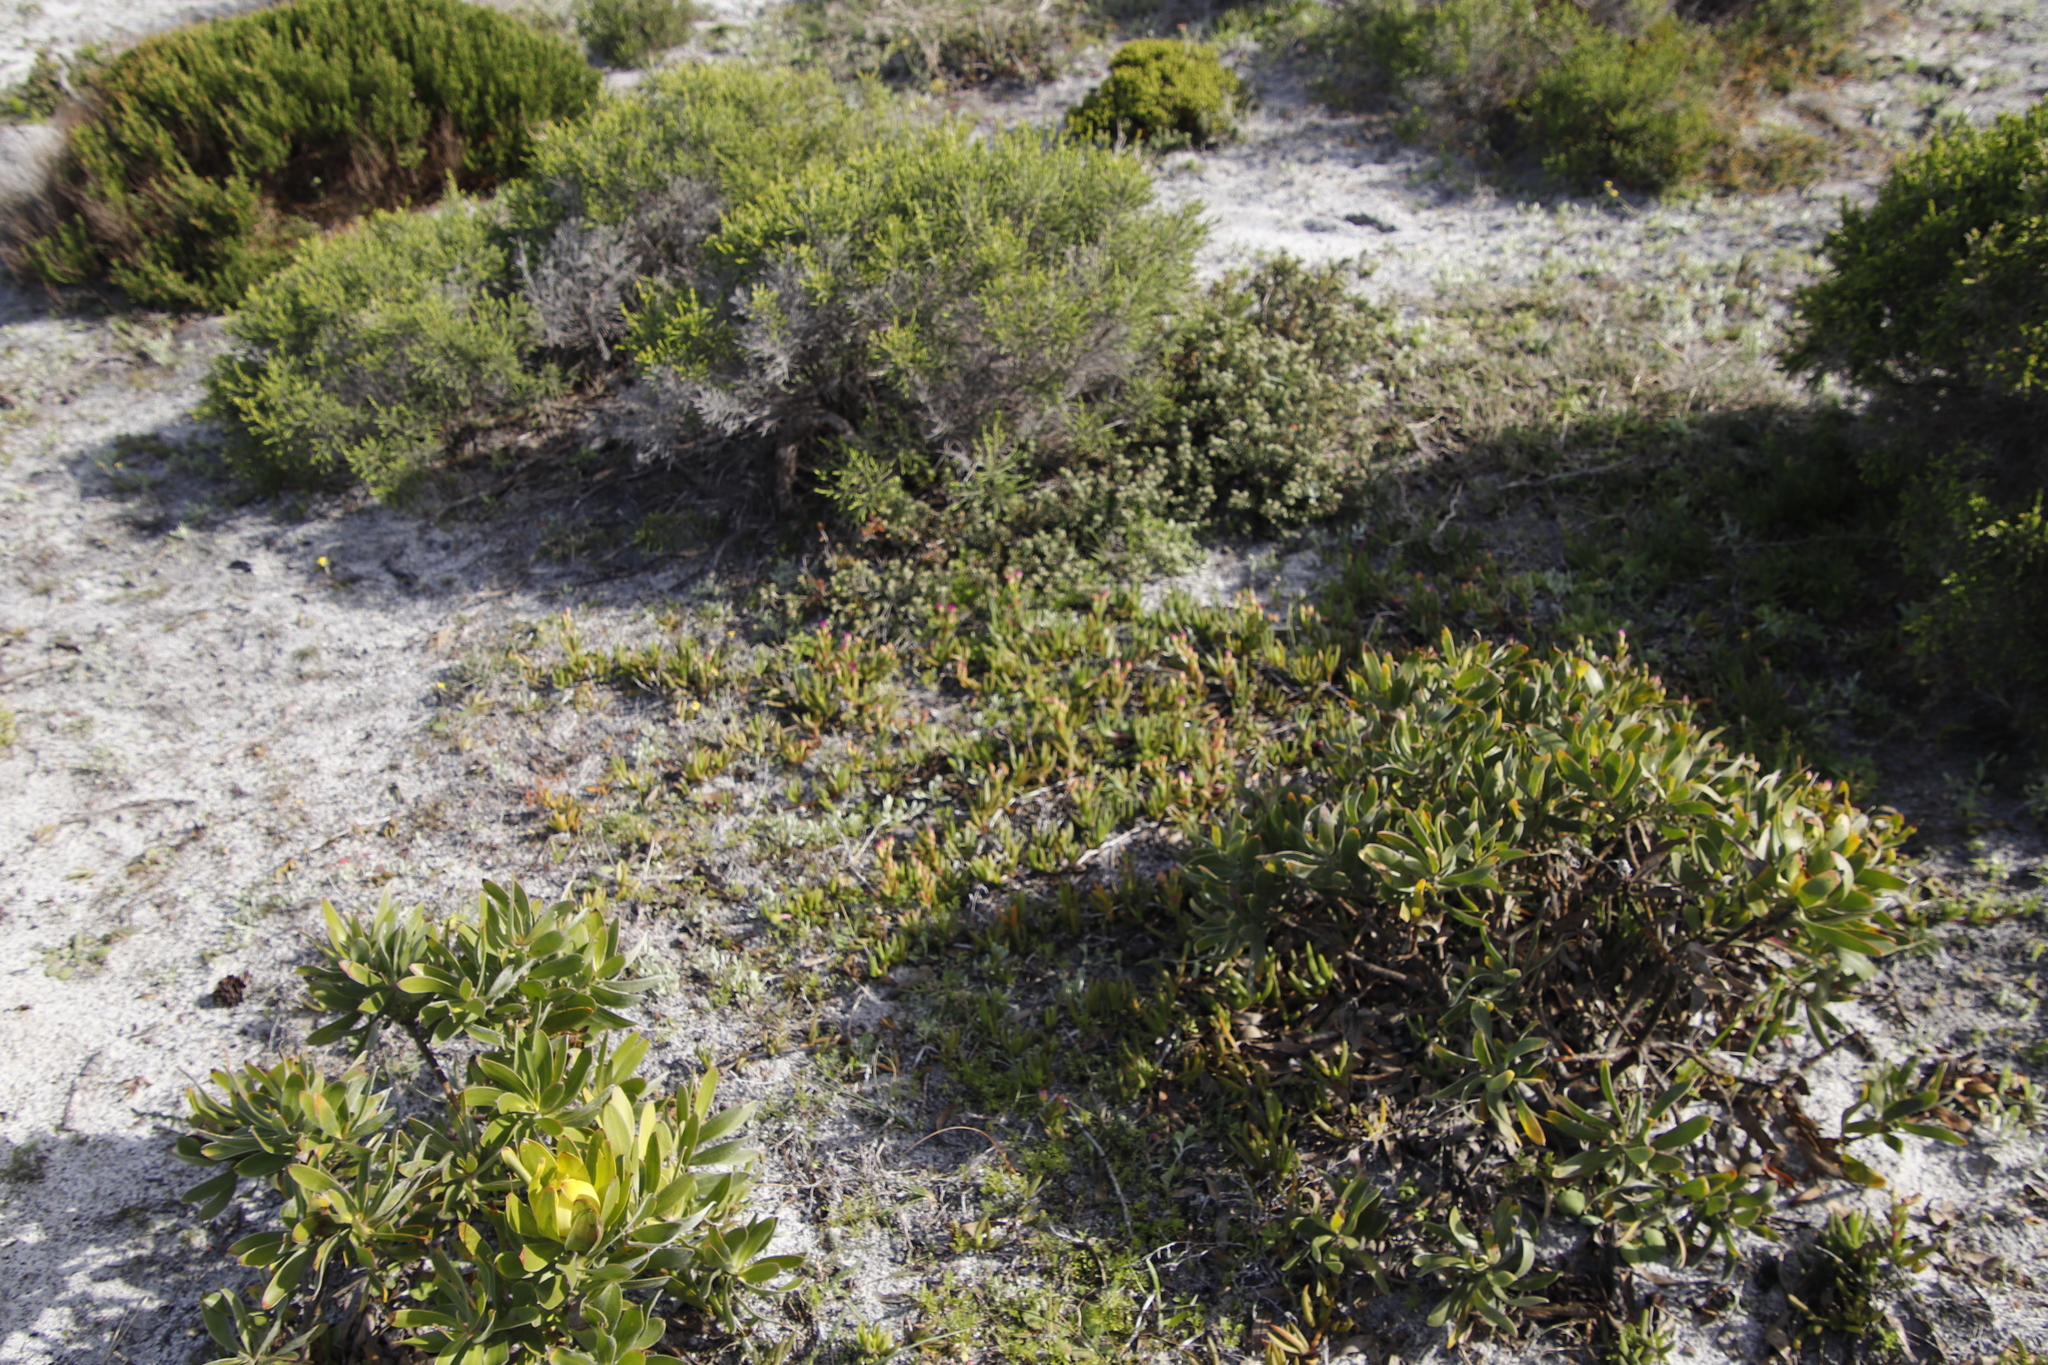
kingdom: Plantae
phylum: Tracheophyta
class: Magnoliopsida
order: Proteales
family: Proteaceae
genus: Leucadendron
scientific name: Leucadendron laureolum
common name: Golden sunshinebush
